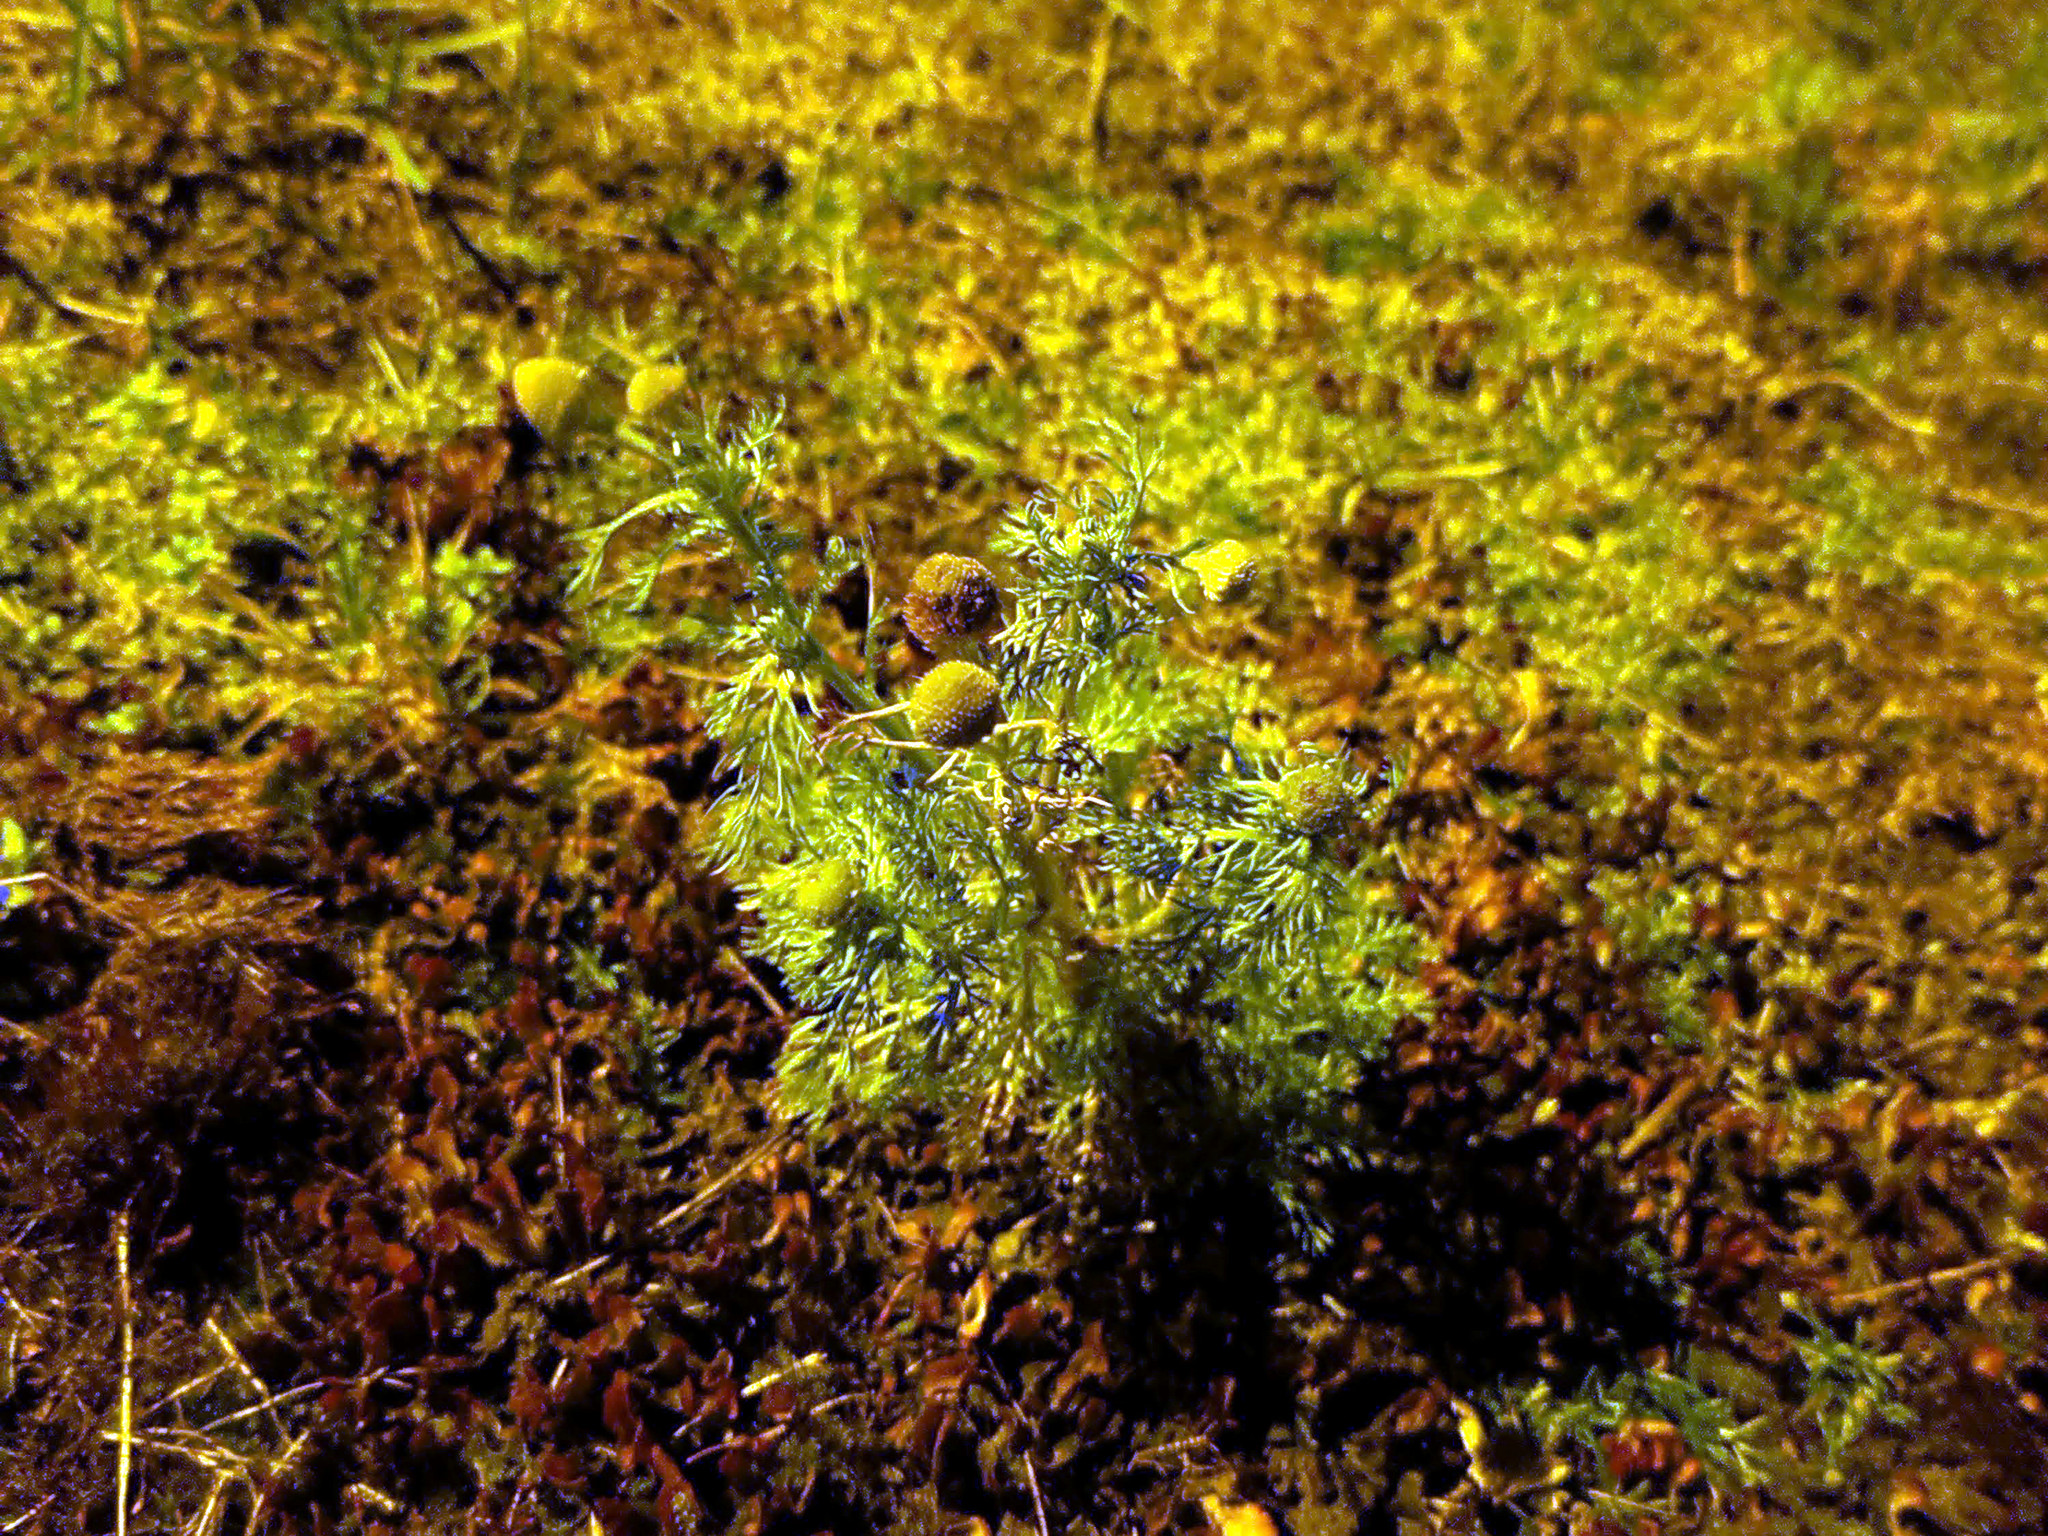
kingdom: Plantae
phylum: Tracheophyta
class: Magnoliopsida
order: Asterales
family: Asteraceae
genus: Matricaria
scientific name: Matricaria discoidea
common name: Disc mayweed
